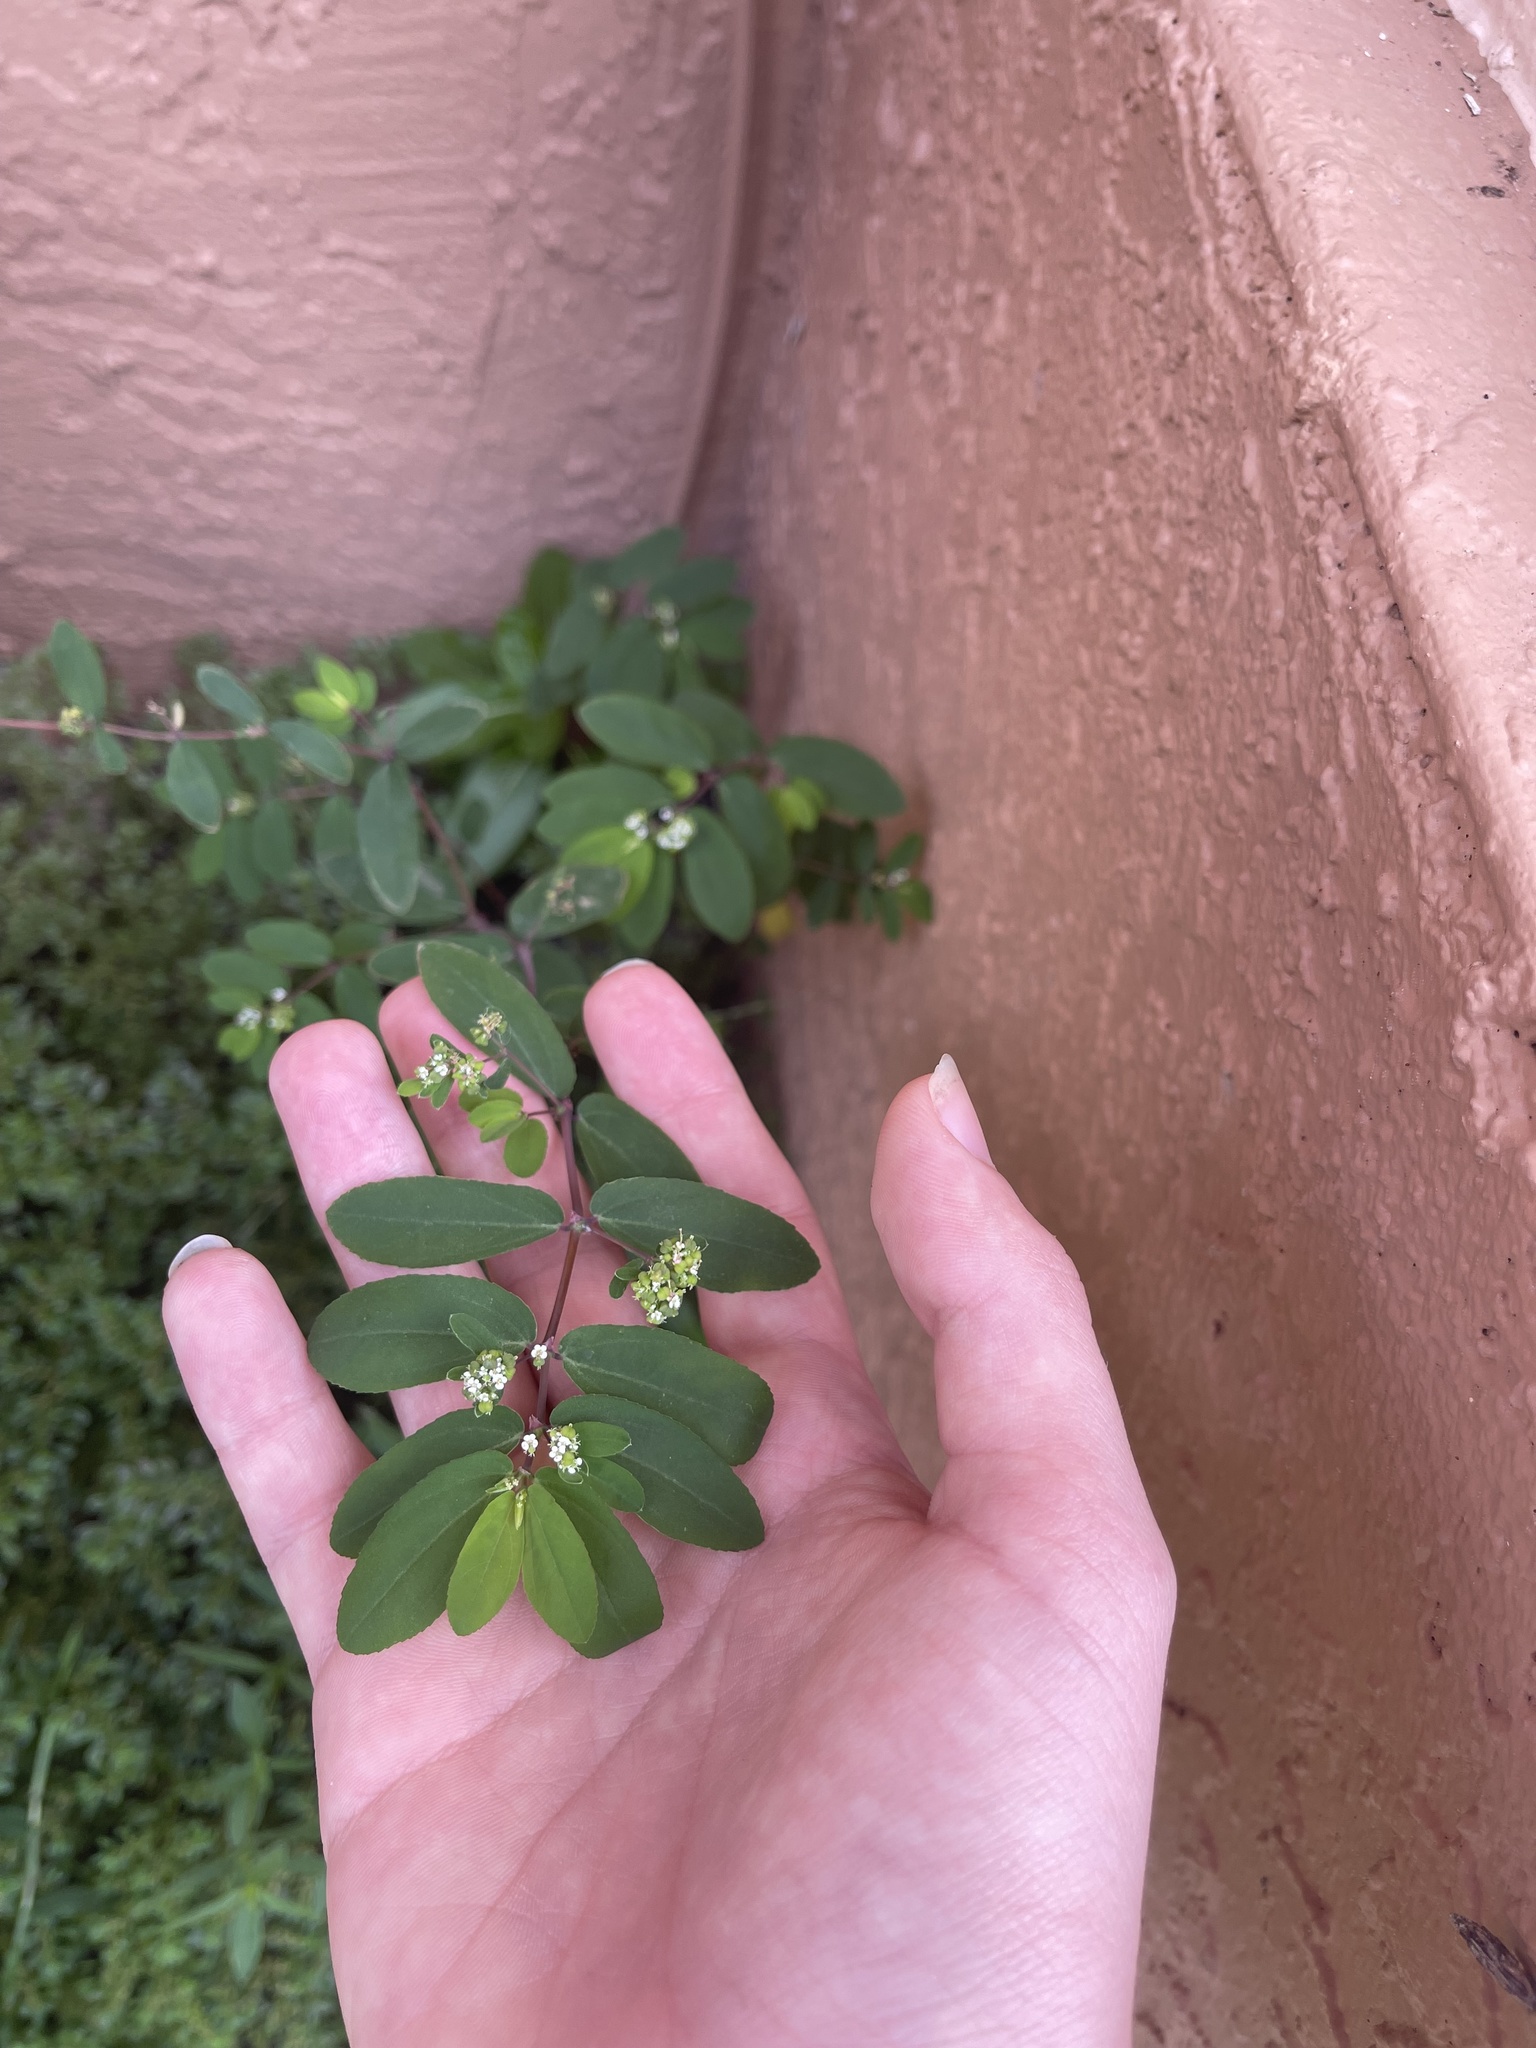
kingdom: Plantae
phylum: Tracheophyta
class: Magnoliopsida
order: Malpighiales
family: Euphorbiaceae
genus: Euphorbia
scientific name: Euphorbia hypericifolia
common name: Graceful sandmat
